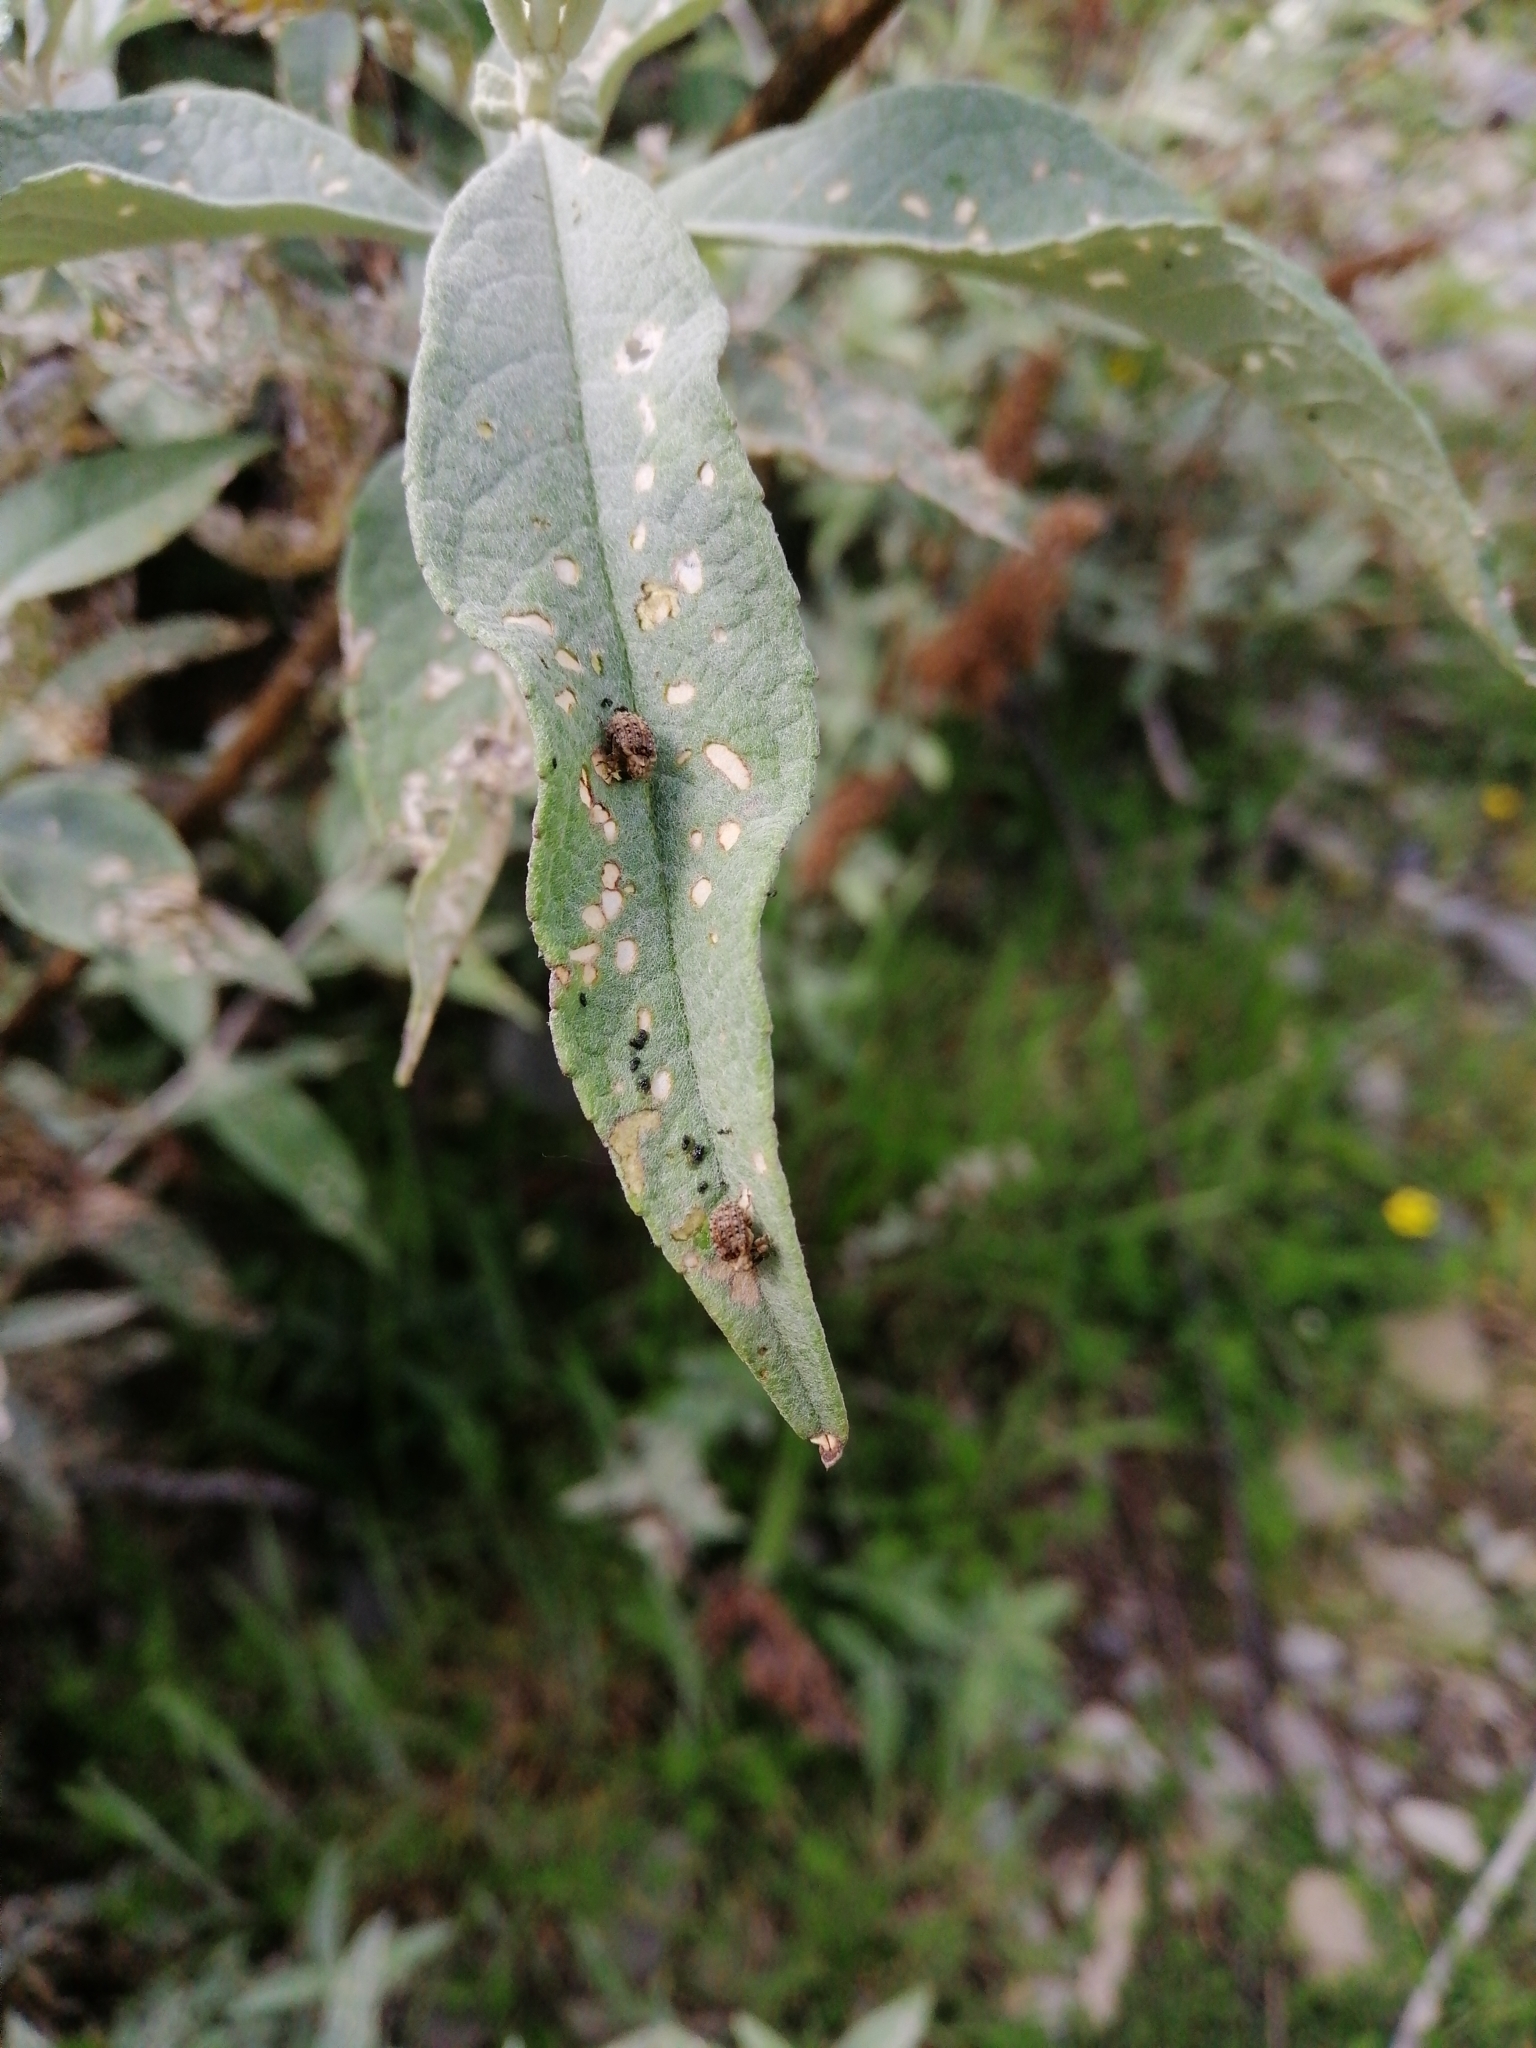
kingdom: Animalia
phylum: Arthropoda
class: Insecta
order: Coleoptera
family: Curculionidae
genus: Cleopus
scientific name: Cleopus japonicus
